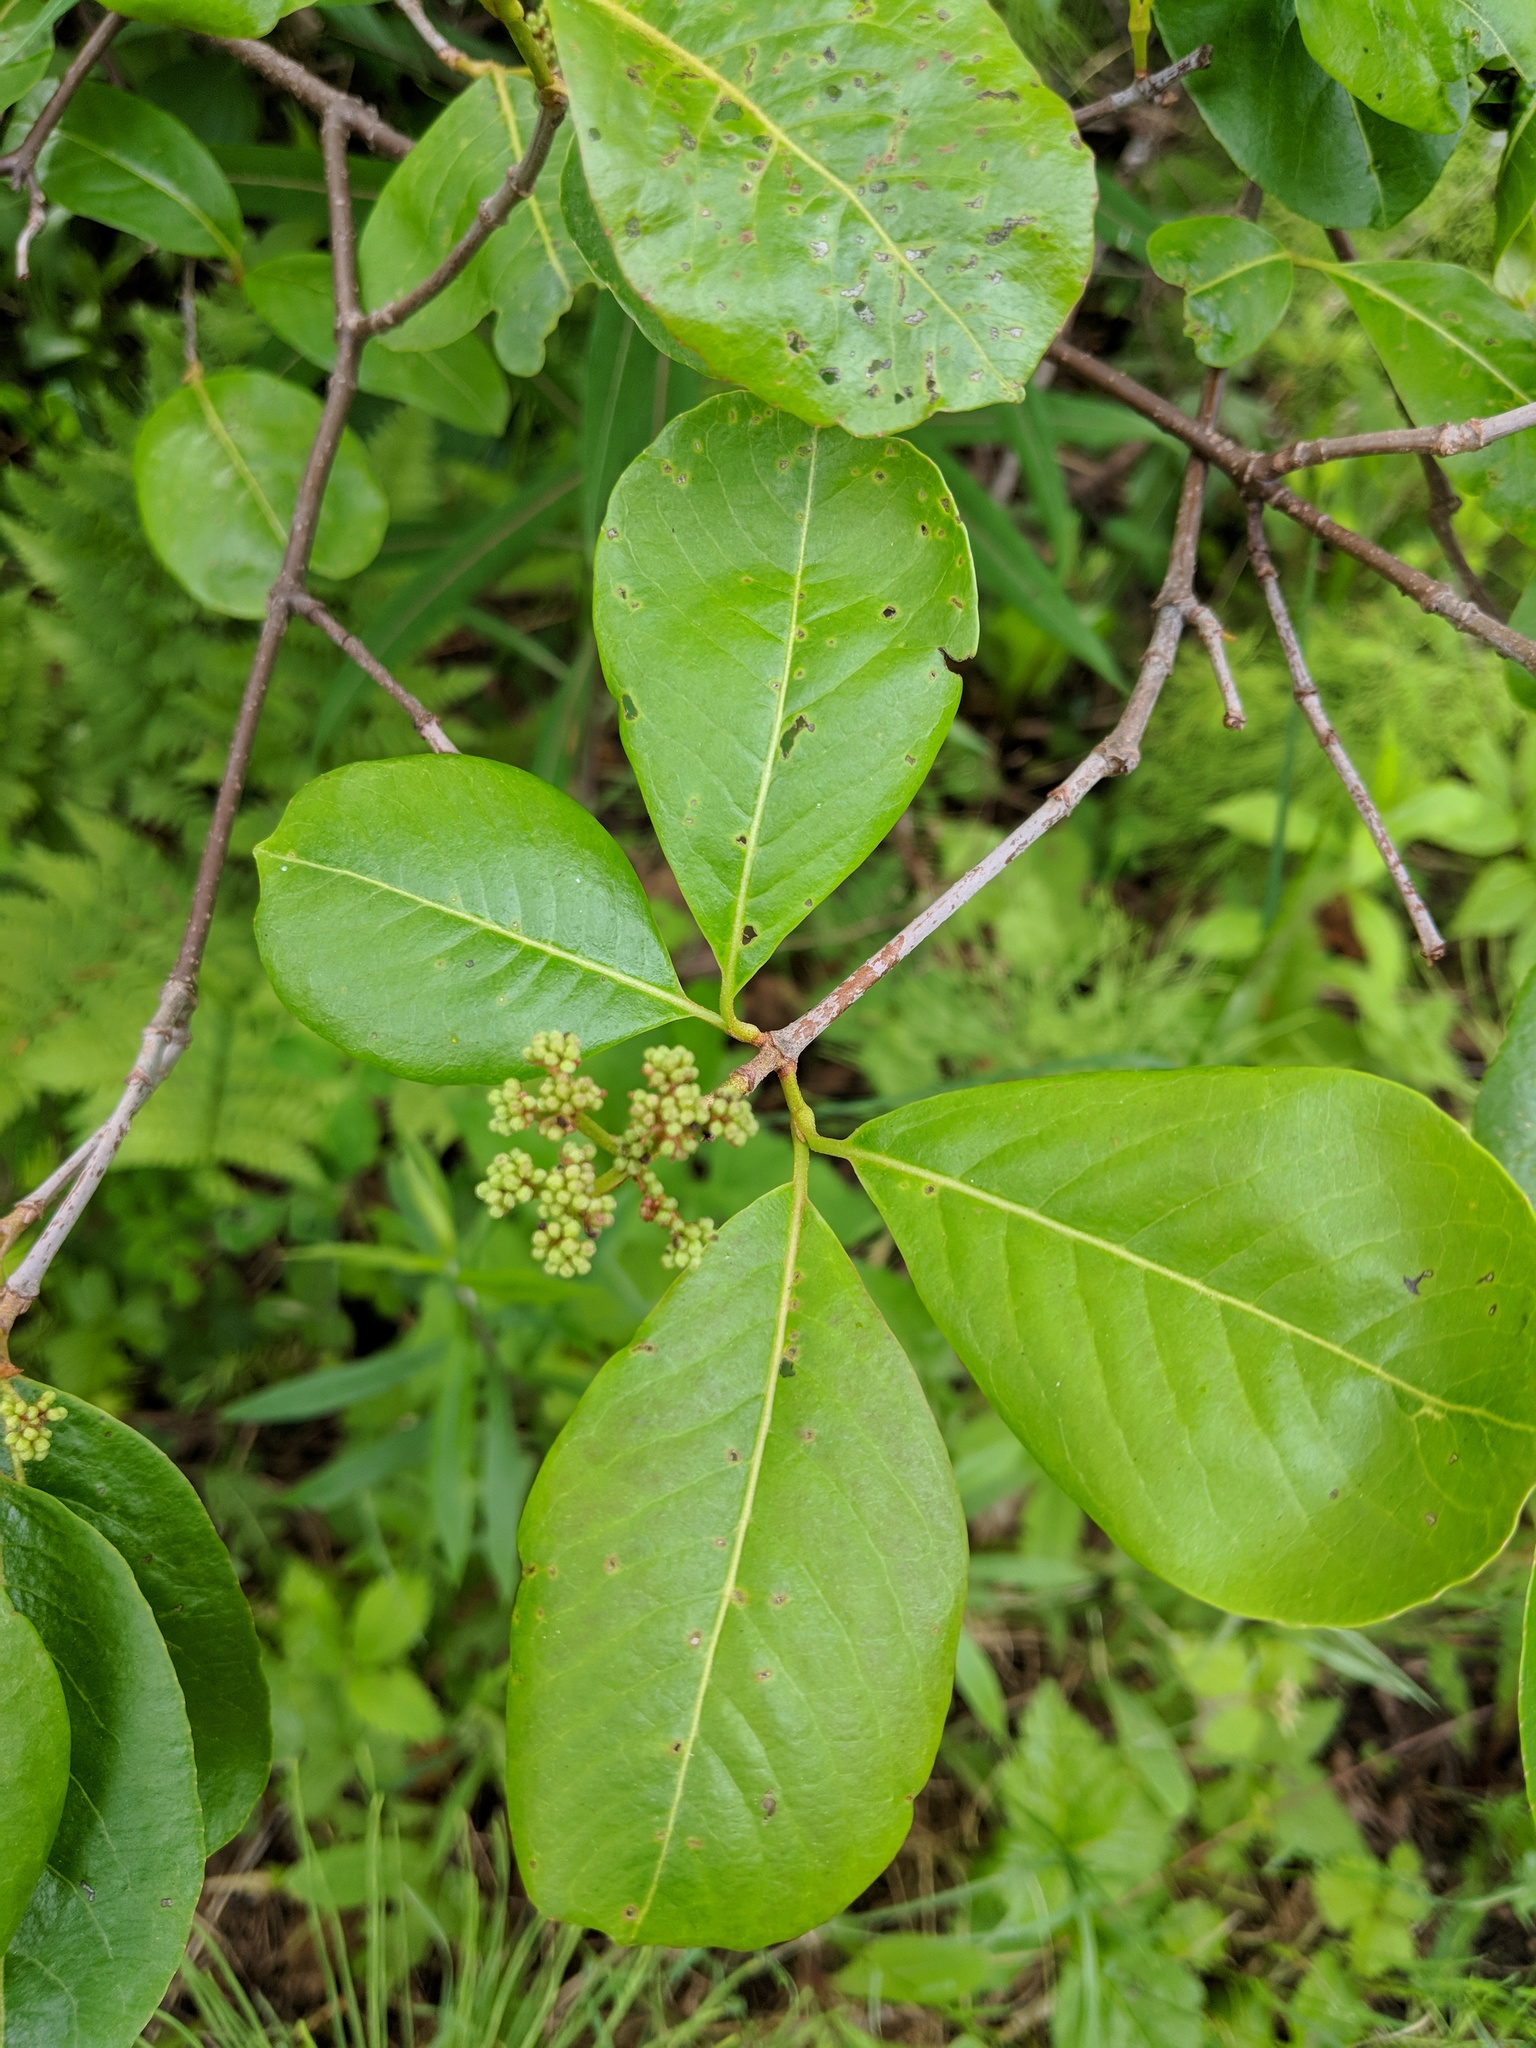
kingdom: Plantae
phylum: Tracheophyta
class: Magnoliopsida
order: Dipsacales
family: Viburnaceae
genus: Viburnum
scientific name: Viburnum cassinoides
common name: Swamp haw
